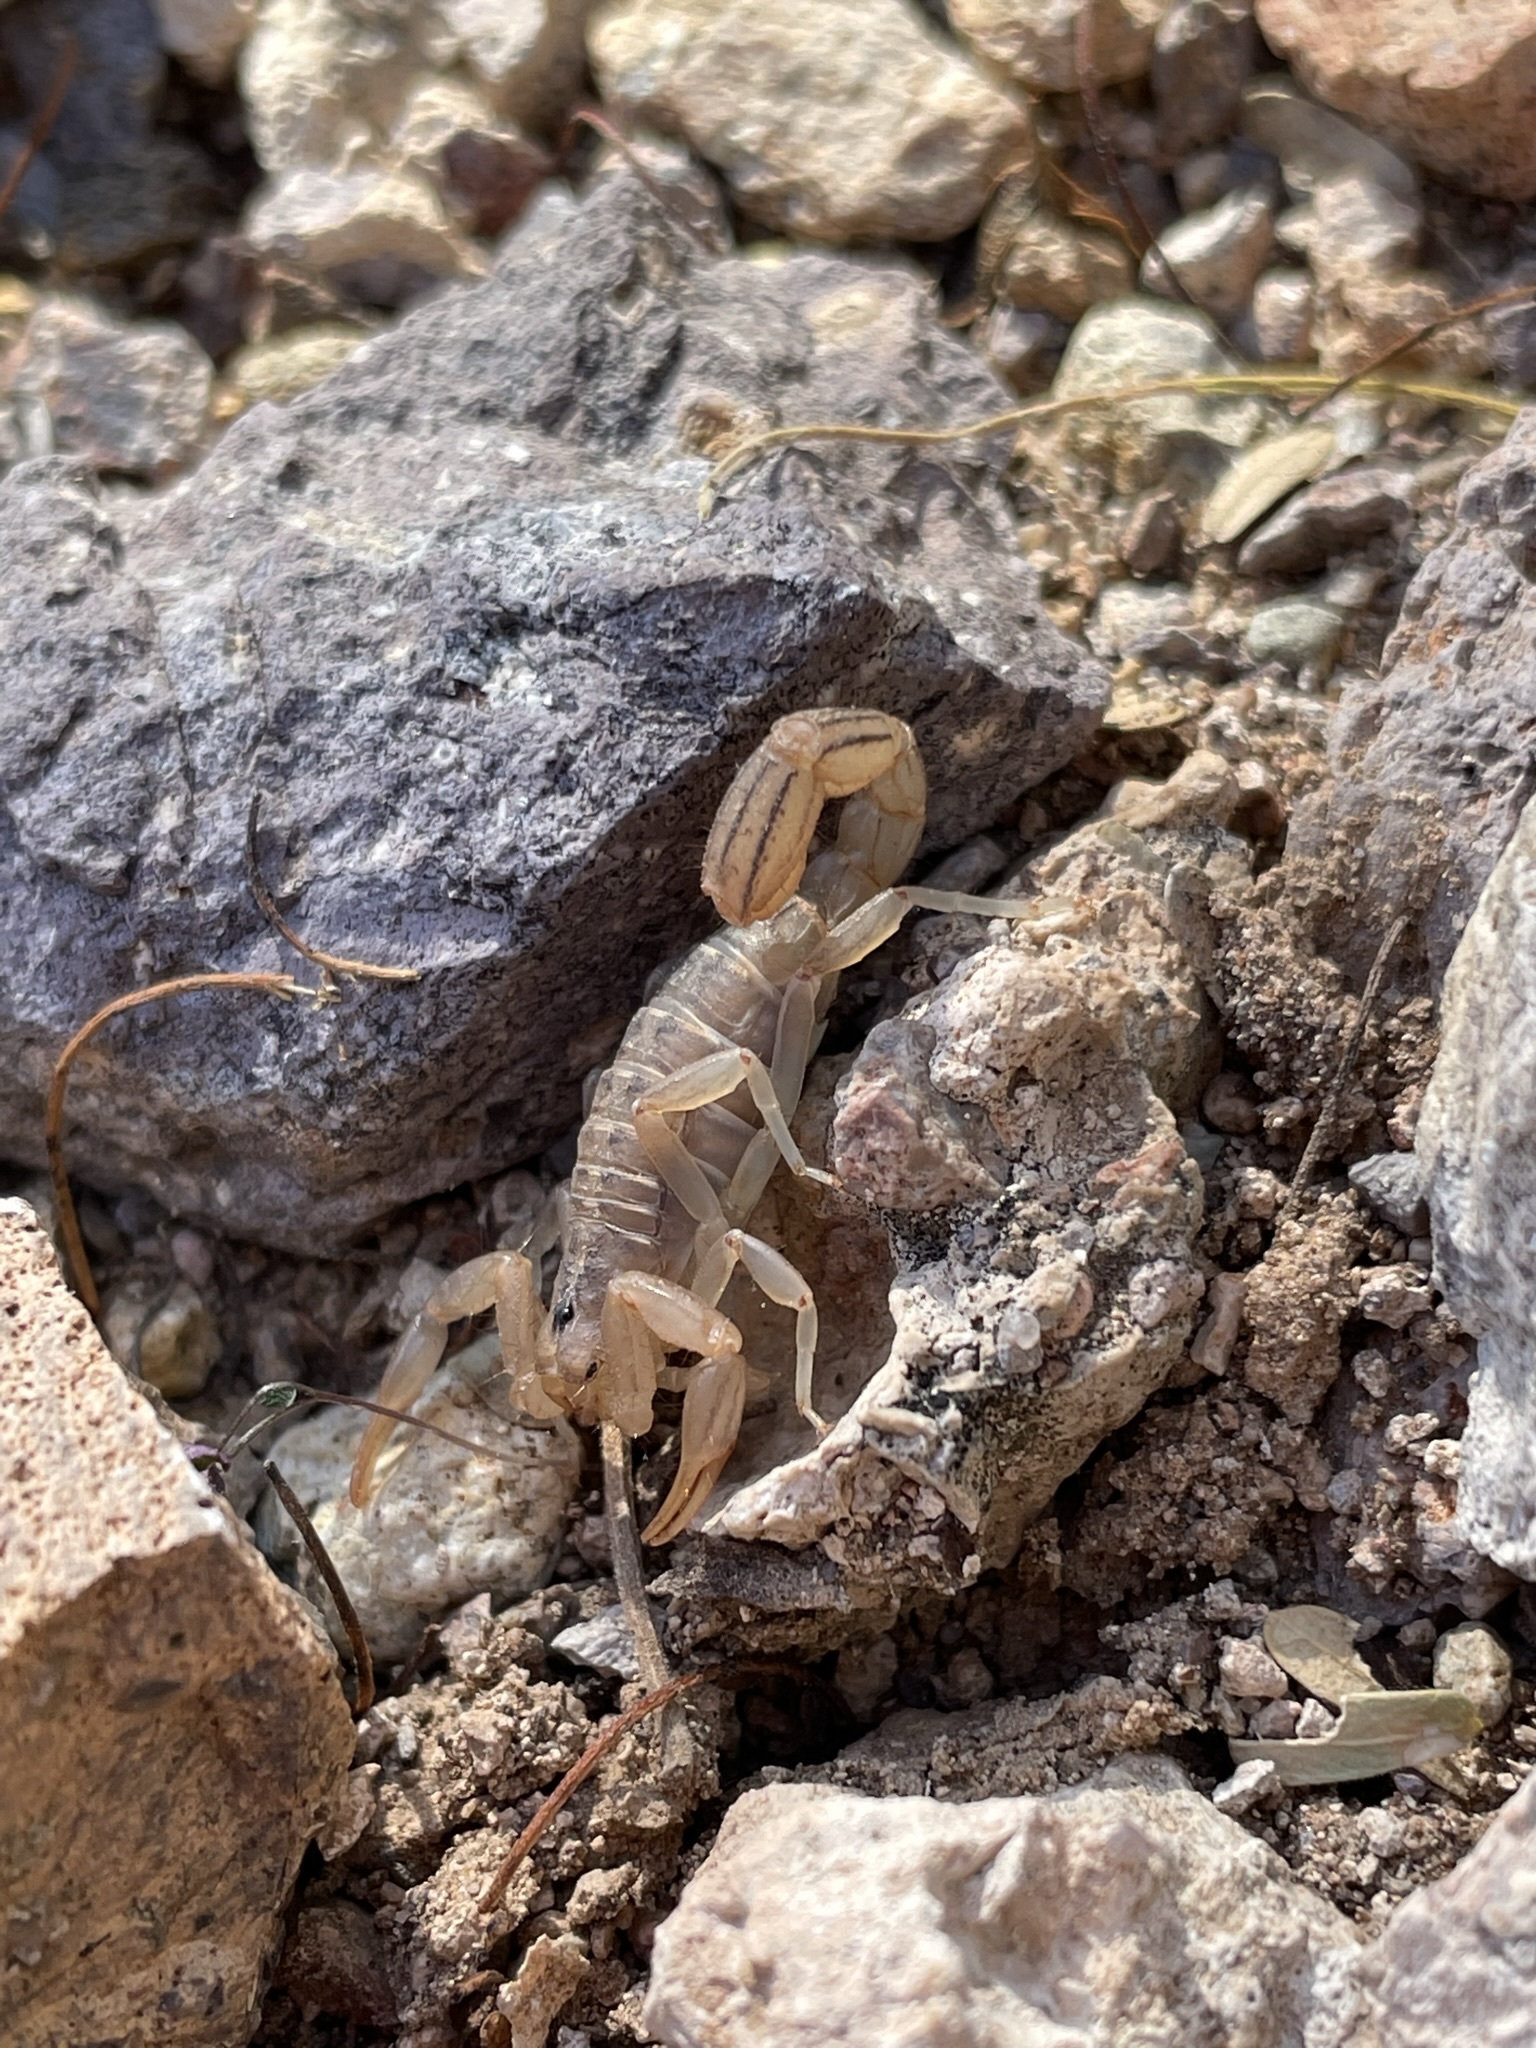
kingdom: Animalia
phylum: Arthropoda
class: Arachnida
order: Scorpiones
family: Vaejovidae
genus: Paravaejovis
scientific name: Paravaejovis spinigerus
